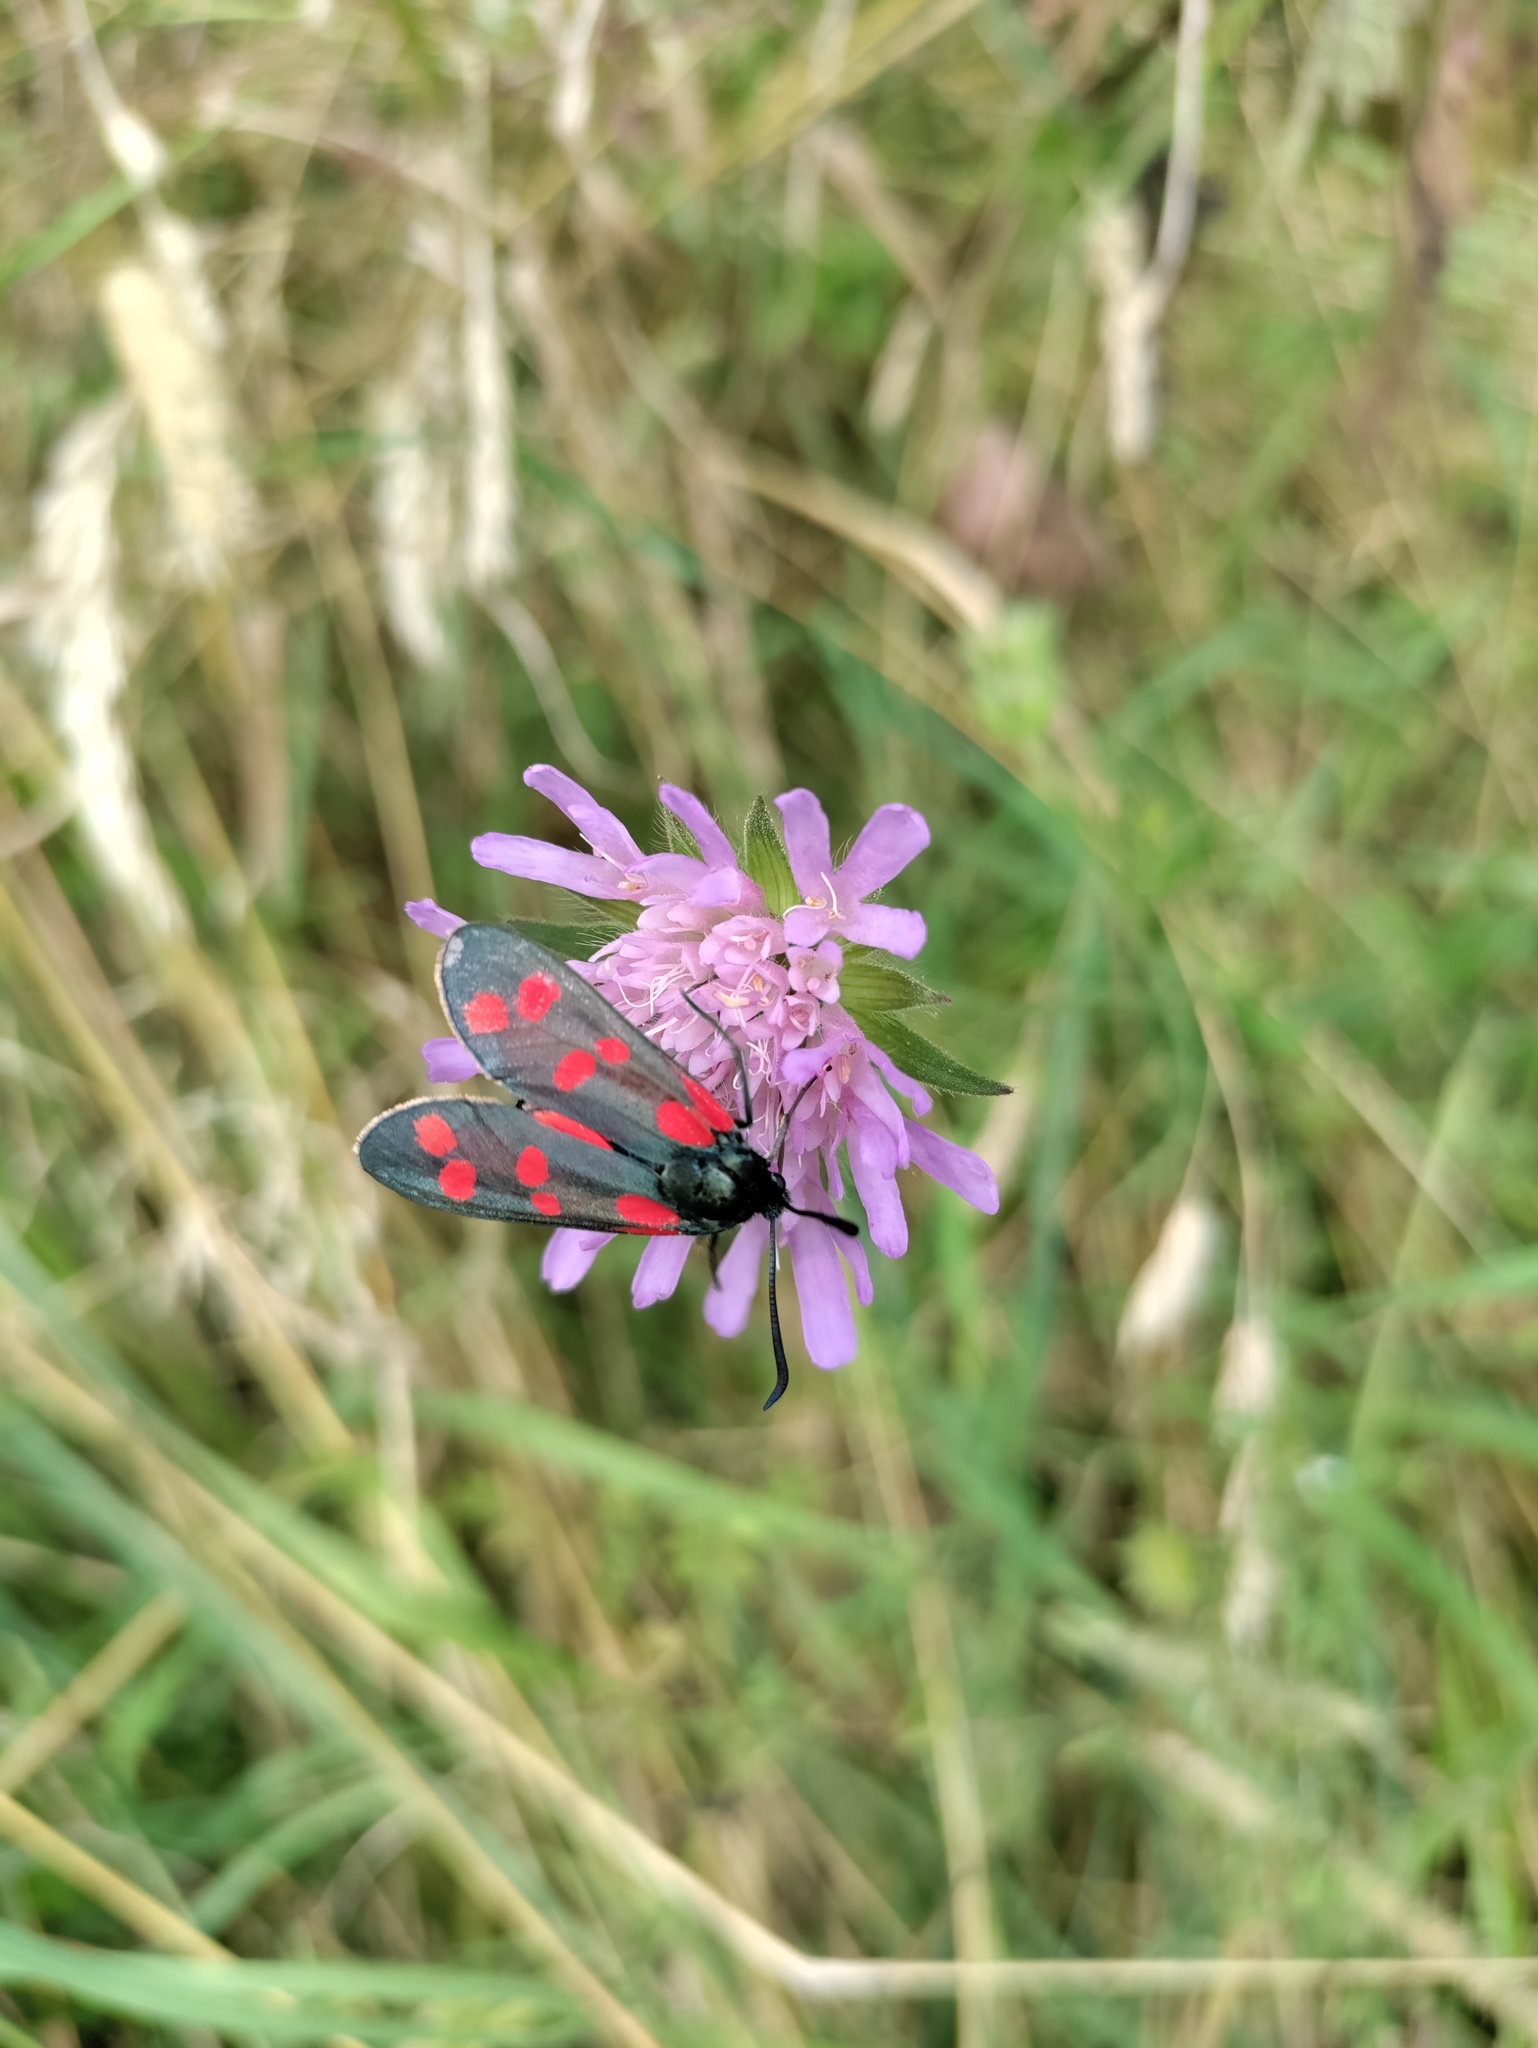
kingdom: Animalia
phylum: Arthropoda
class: Insecta
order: Lepidoptera
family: Zygaenidae
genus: Zygaena
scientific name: Zygaena filipendulae
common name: Six-spot burnet
